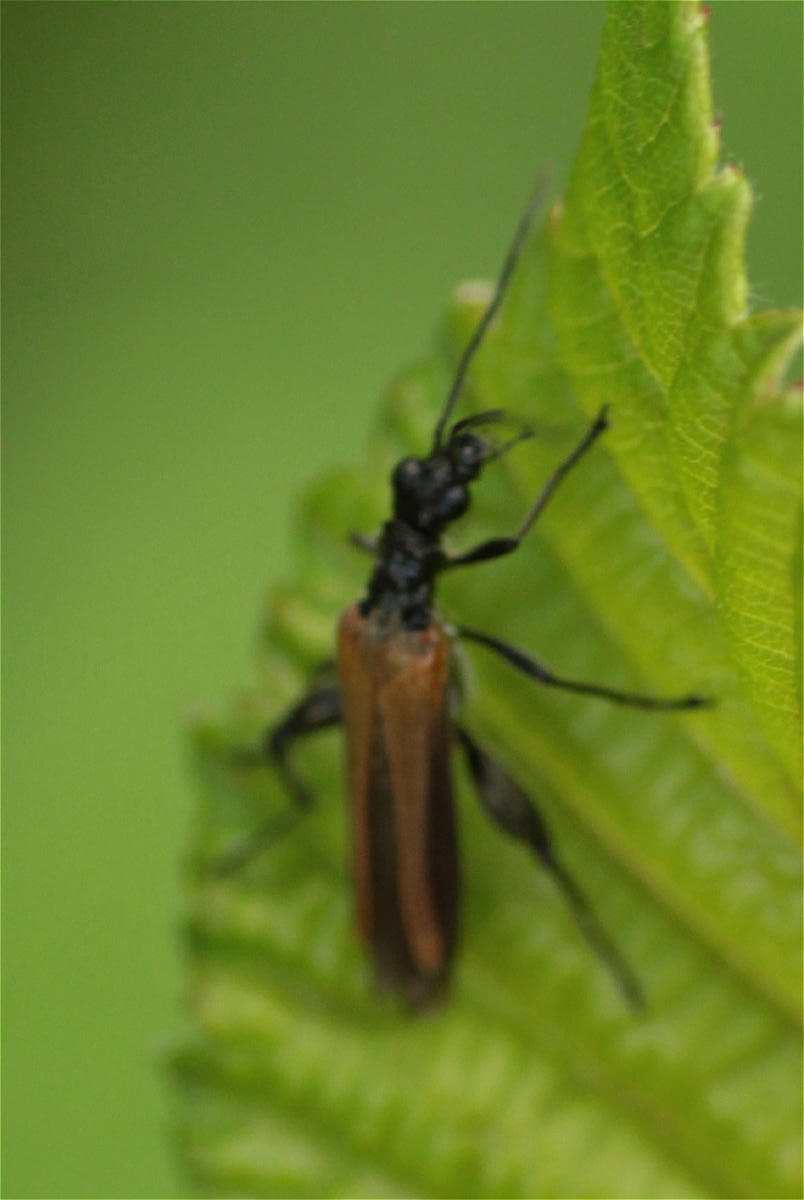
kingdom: Animalia
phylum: Arthropoda
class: Insecta
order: Coleoptera
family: Oedemeridae
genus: Oedemera
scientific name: Oedemera femorata
